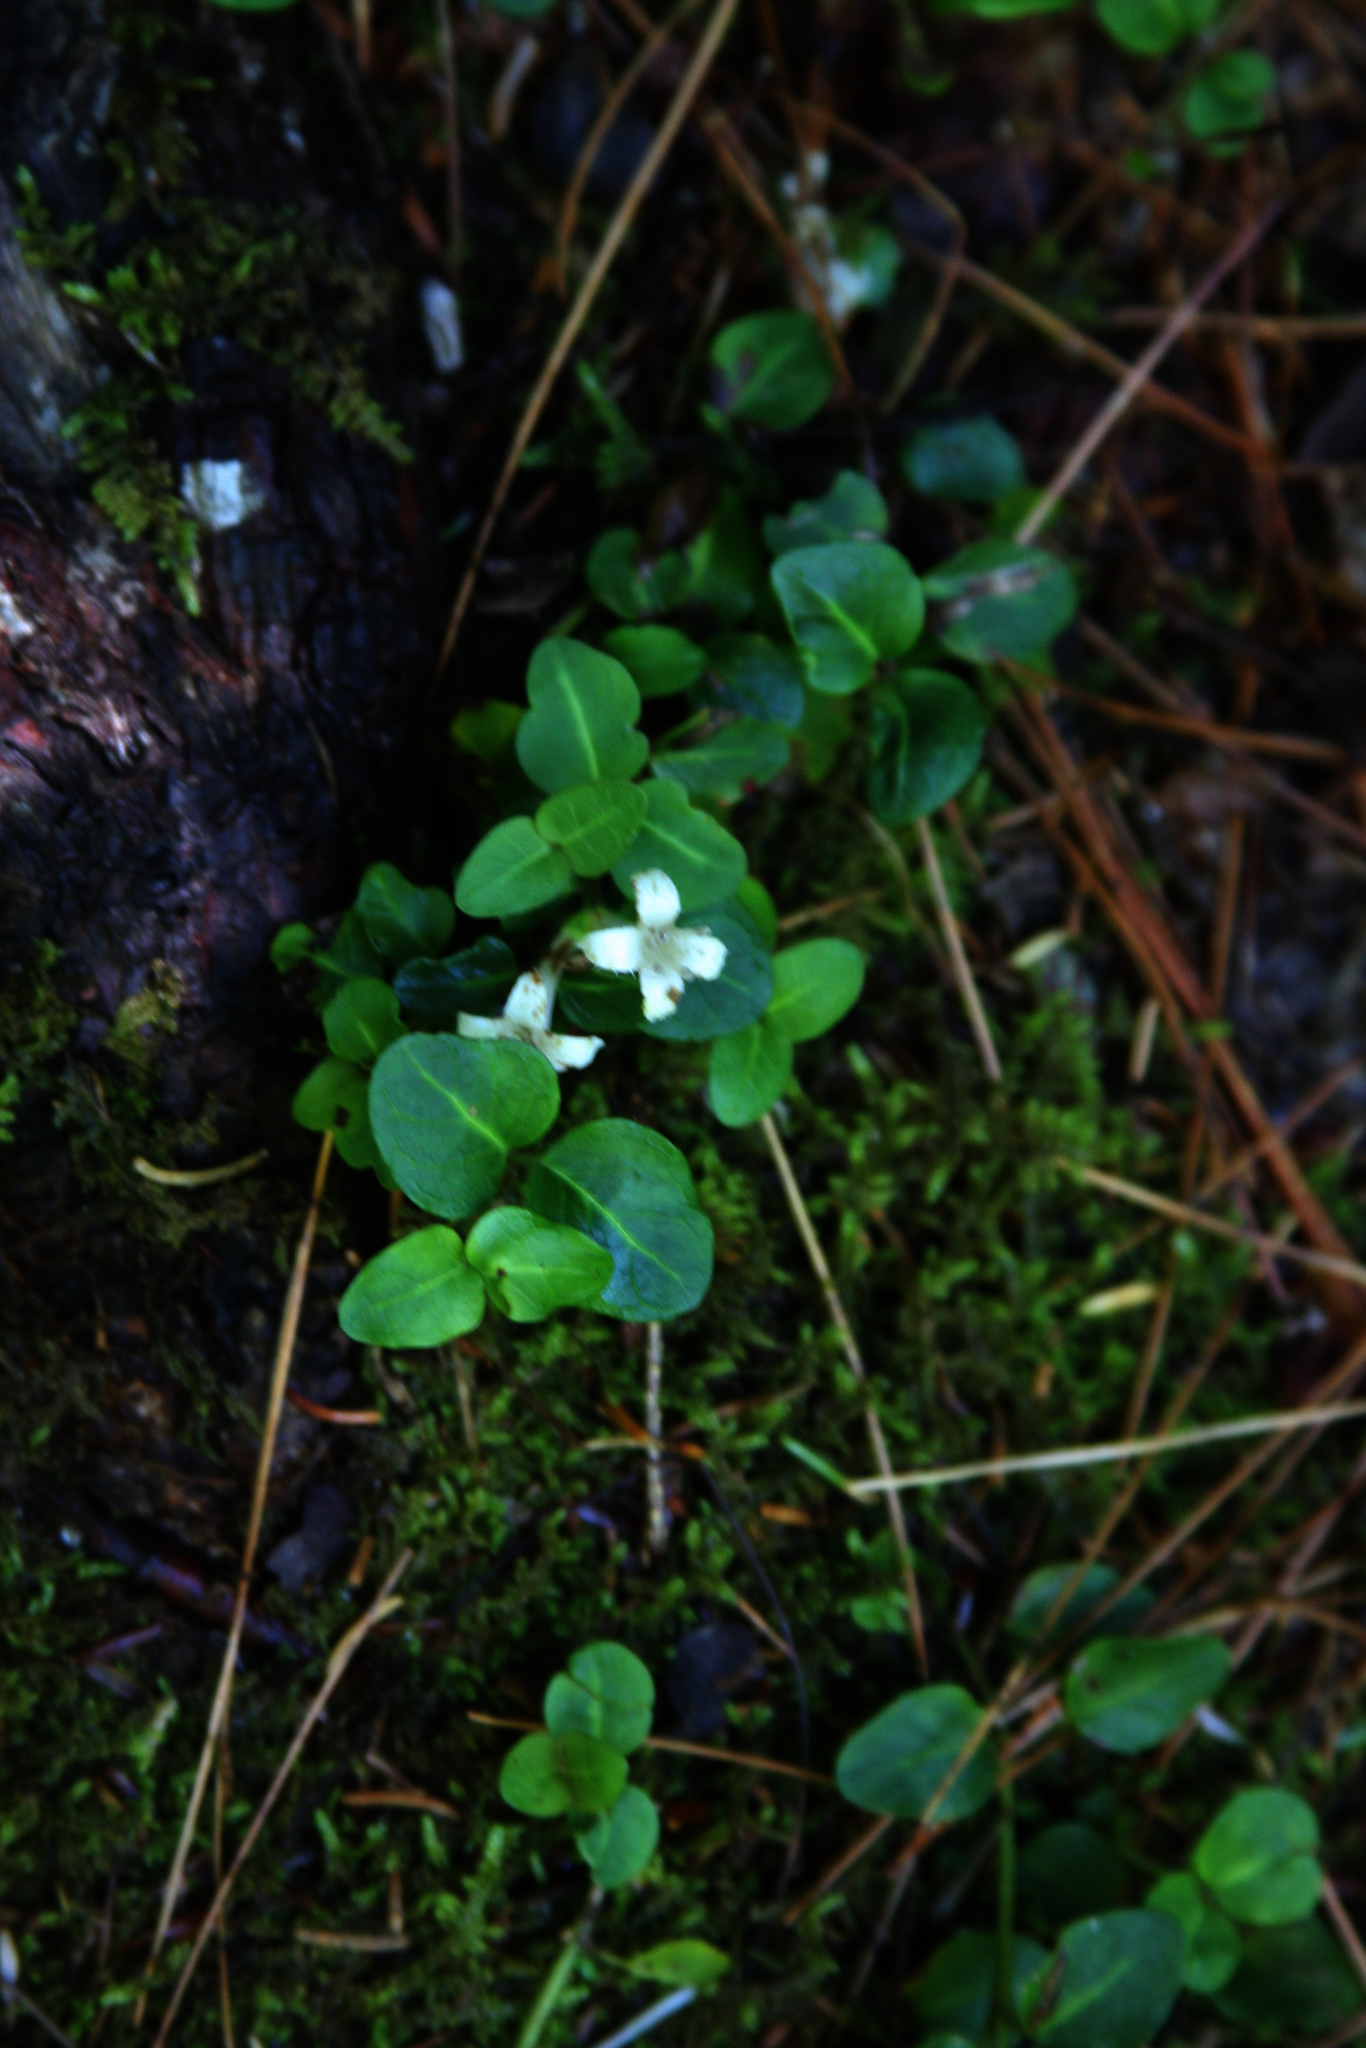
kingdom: Plantae
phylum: Tracheophyta
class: Magnoliopsida
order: Gentianales
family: Rubiaceae
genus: Mitchella
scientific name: Mitchella repens
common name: Partridge-berry
